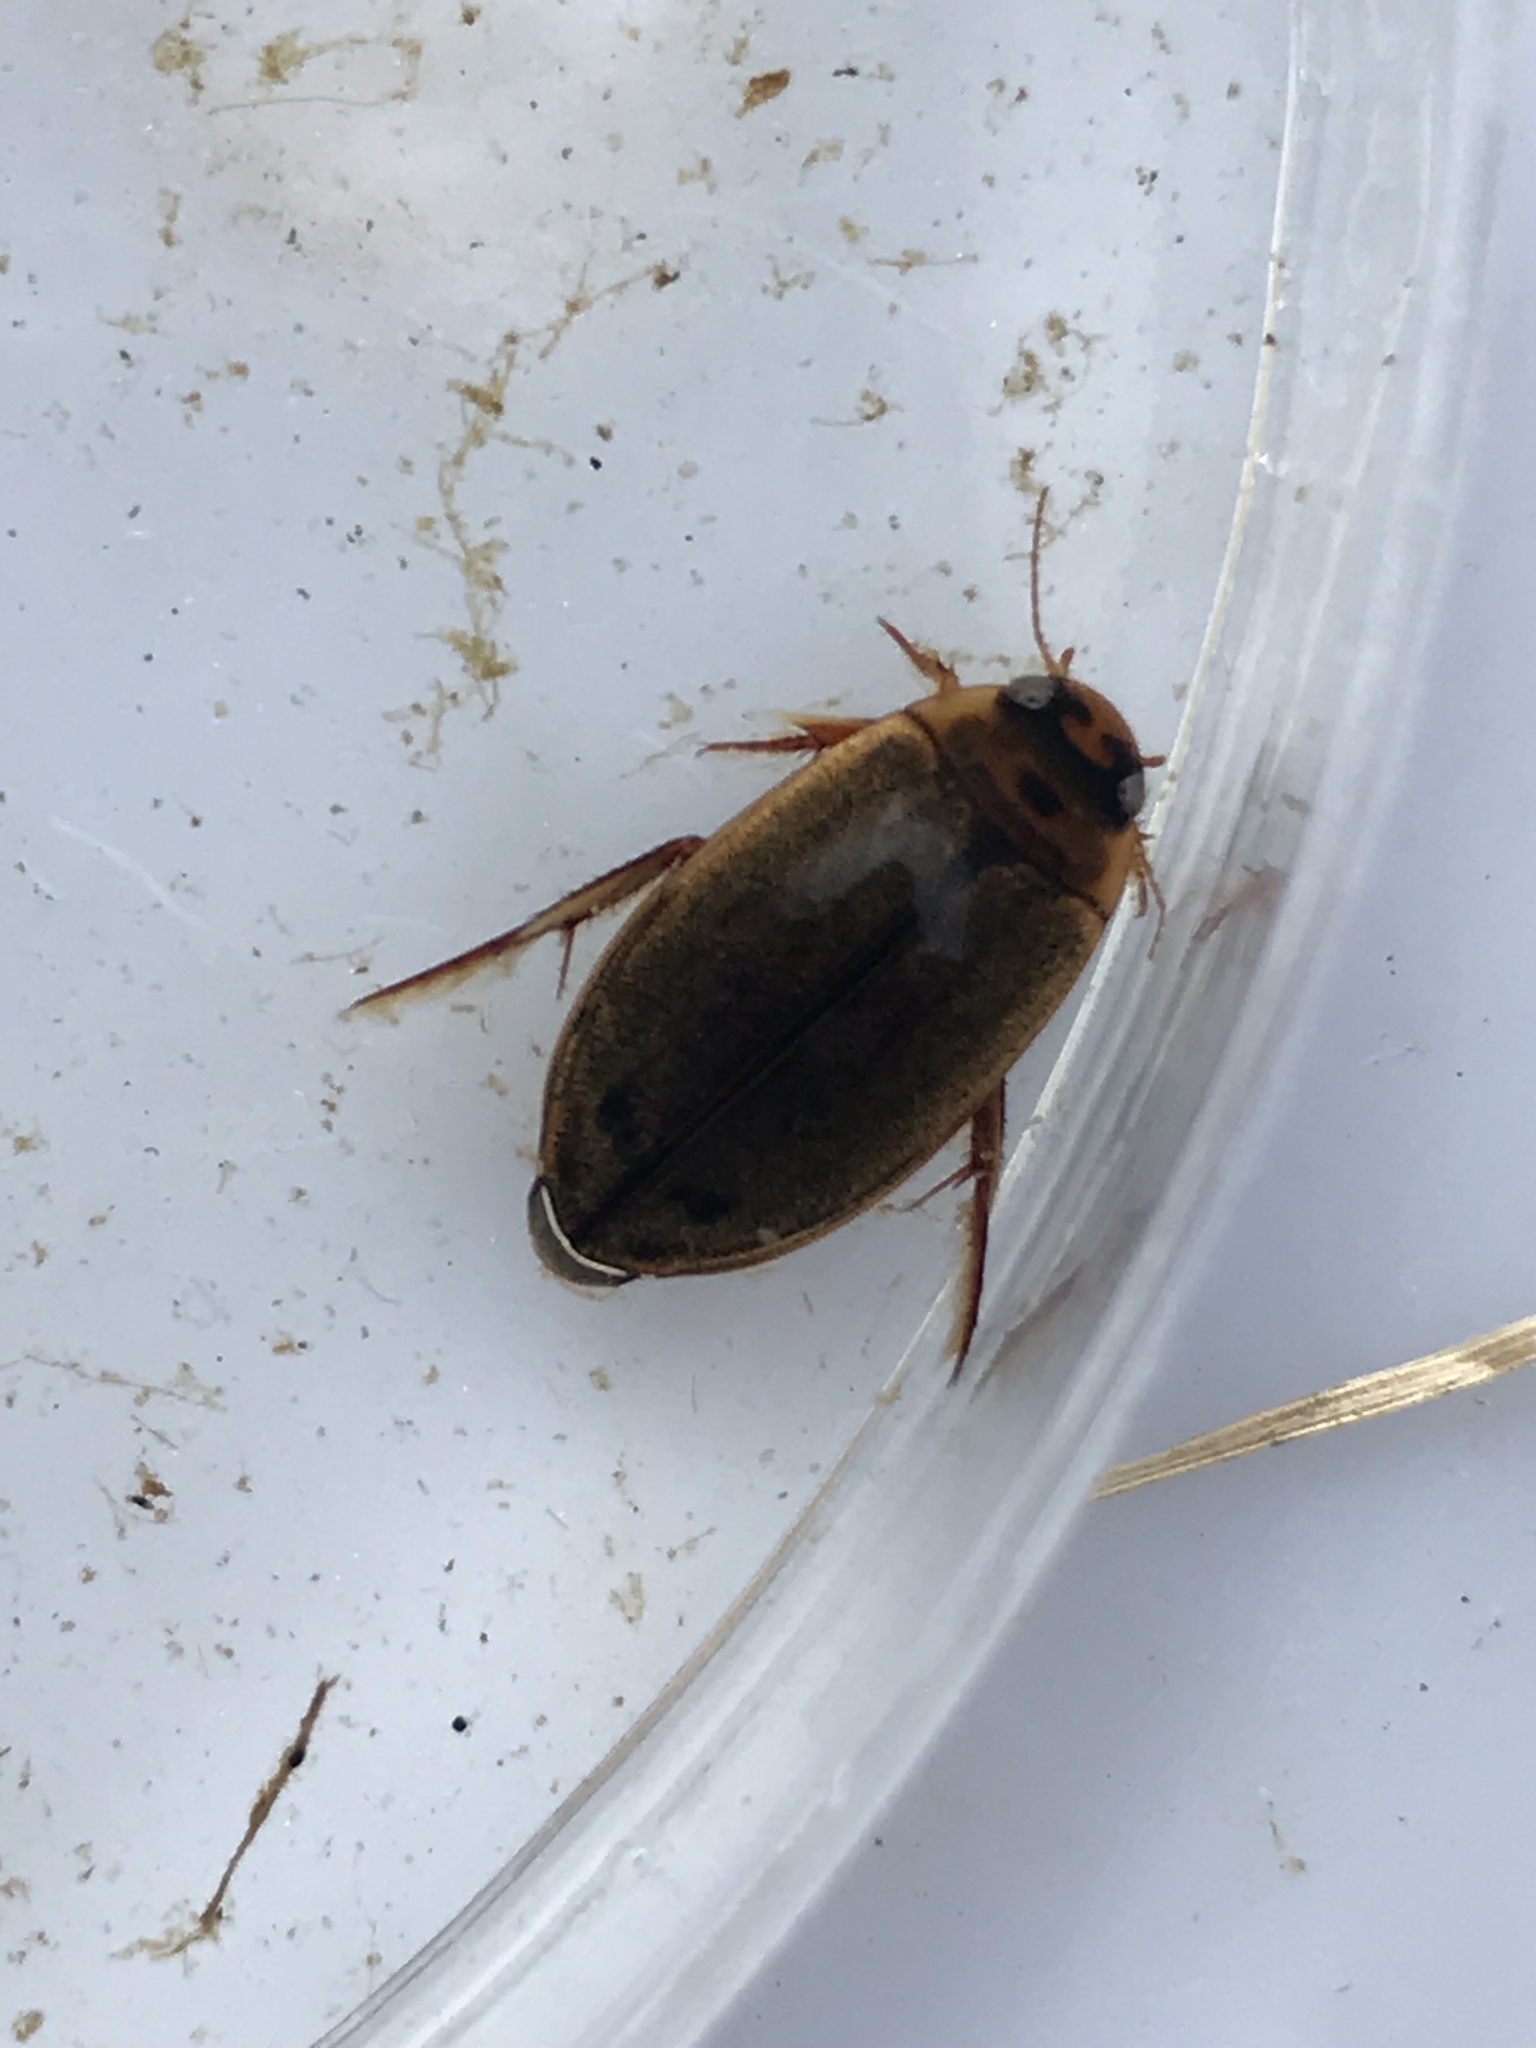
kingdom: Animalia
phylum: Arthropoda
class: Insecta
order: Coleoptera
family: Dytiscidae
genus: Rhantus
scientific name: Rhantus suturalis
